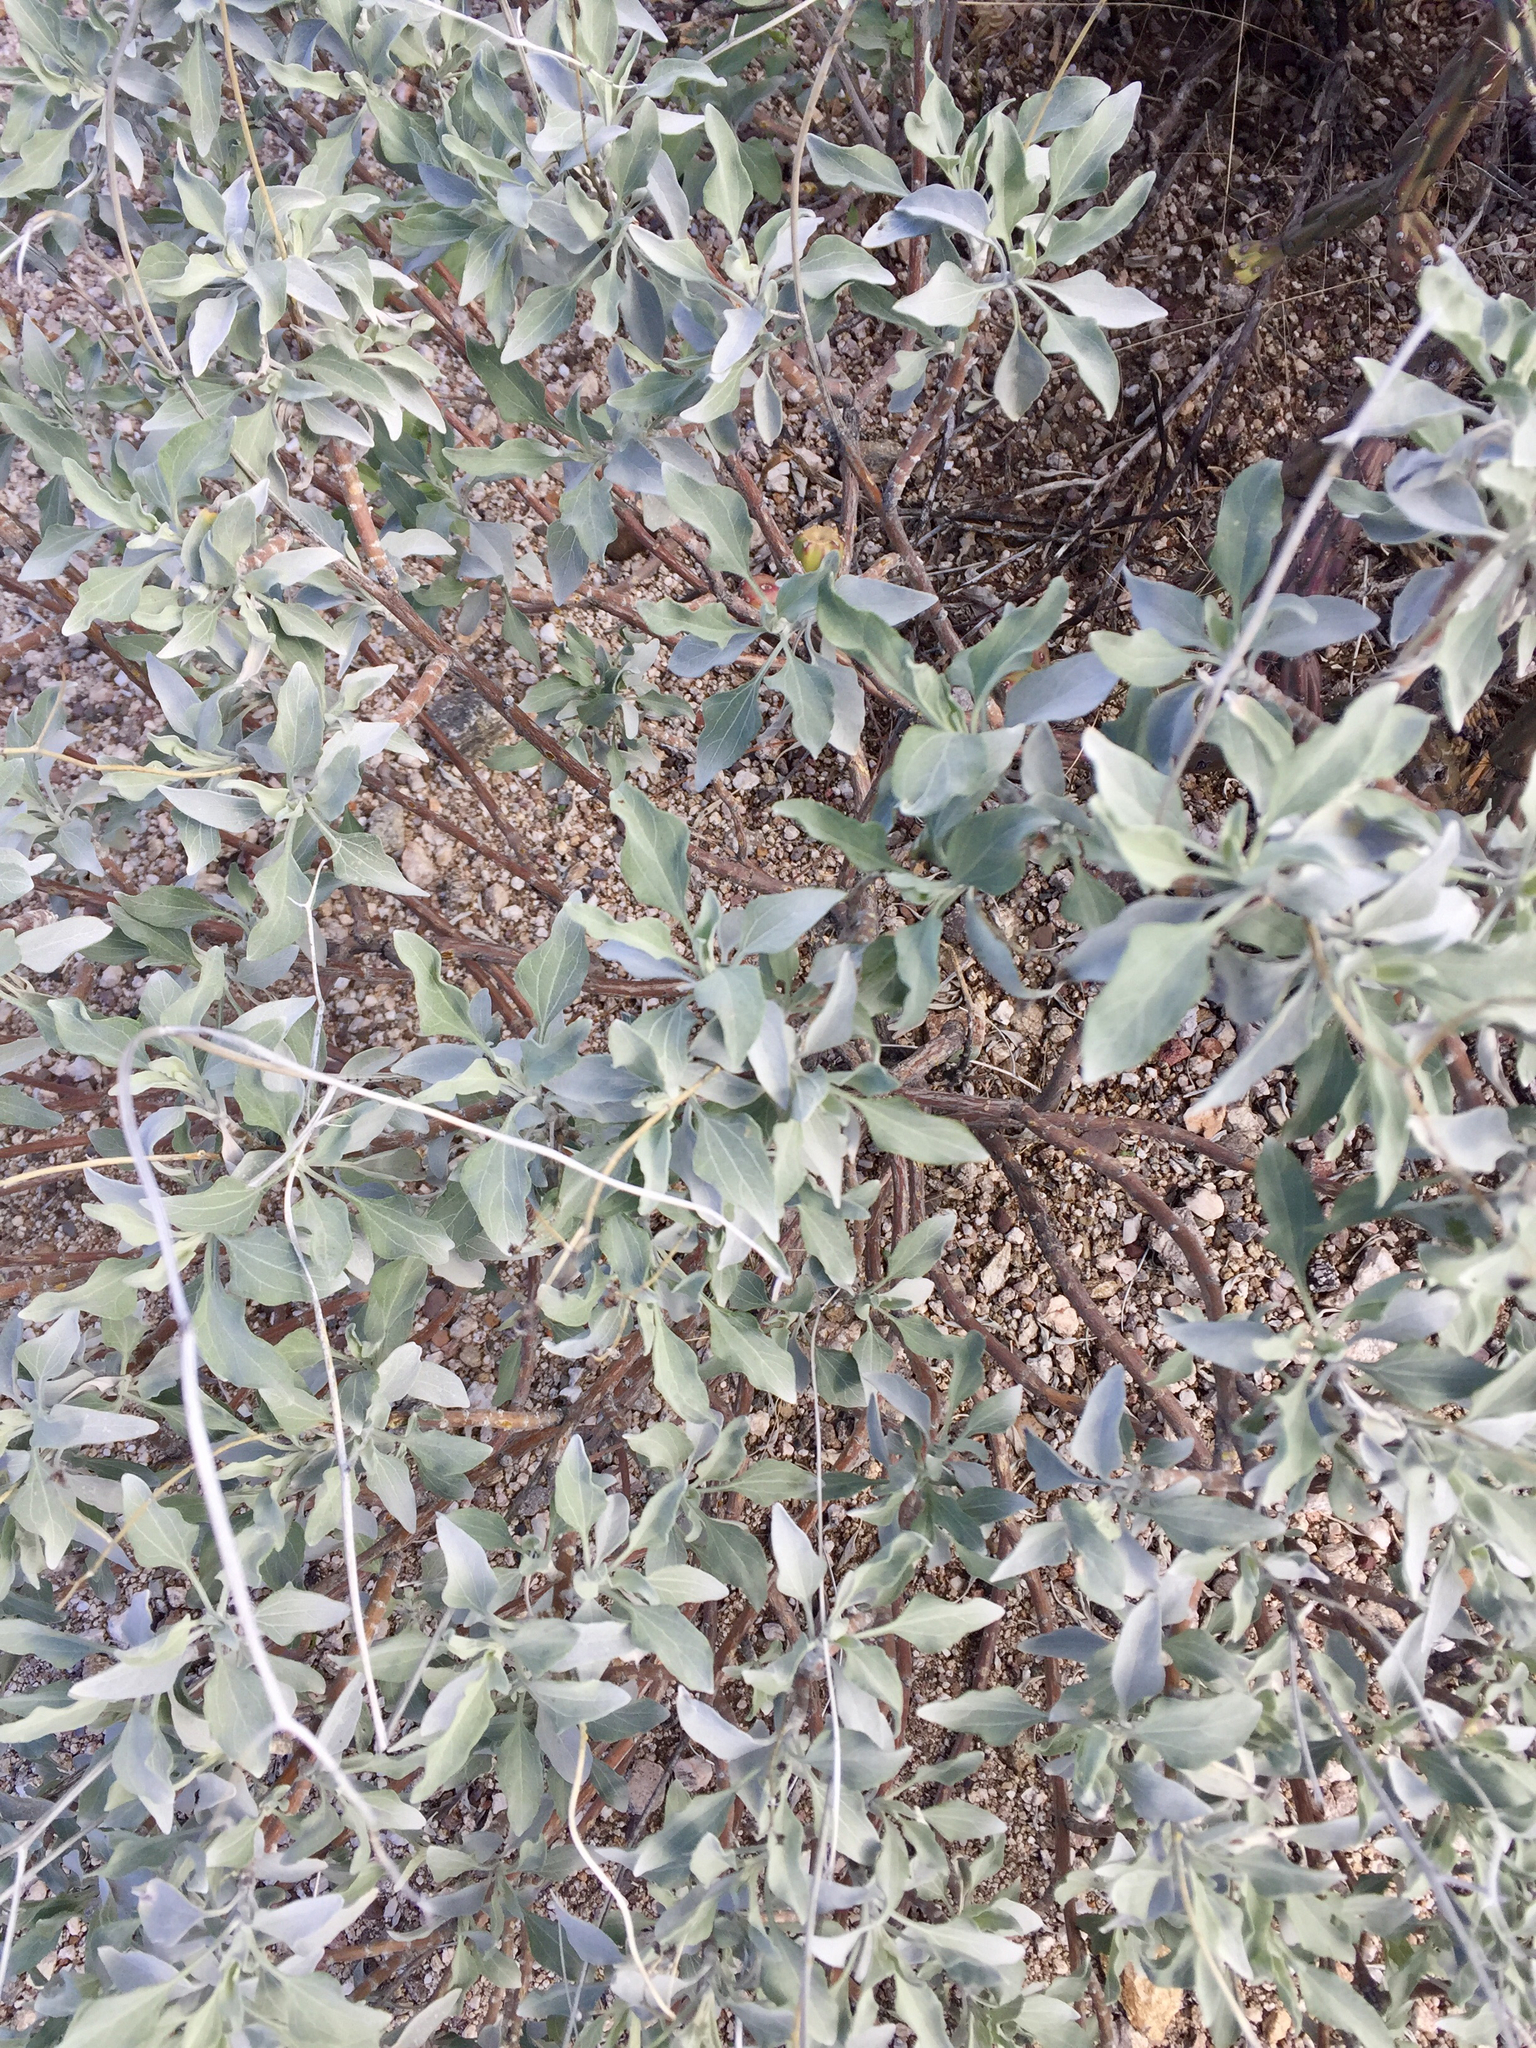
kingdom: Plantae
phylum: Tracheophyta
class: Magnoliopsida
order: Asterales
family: Asteraceae
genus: Encelia
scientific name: Encelia farinosa
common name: Brittlebush
